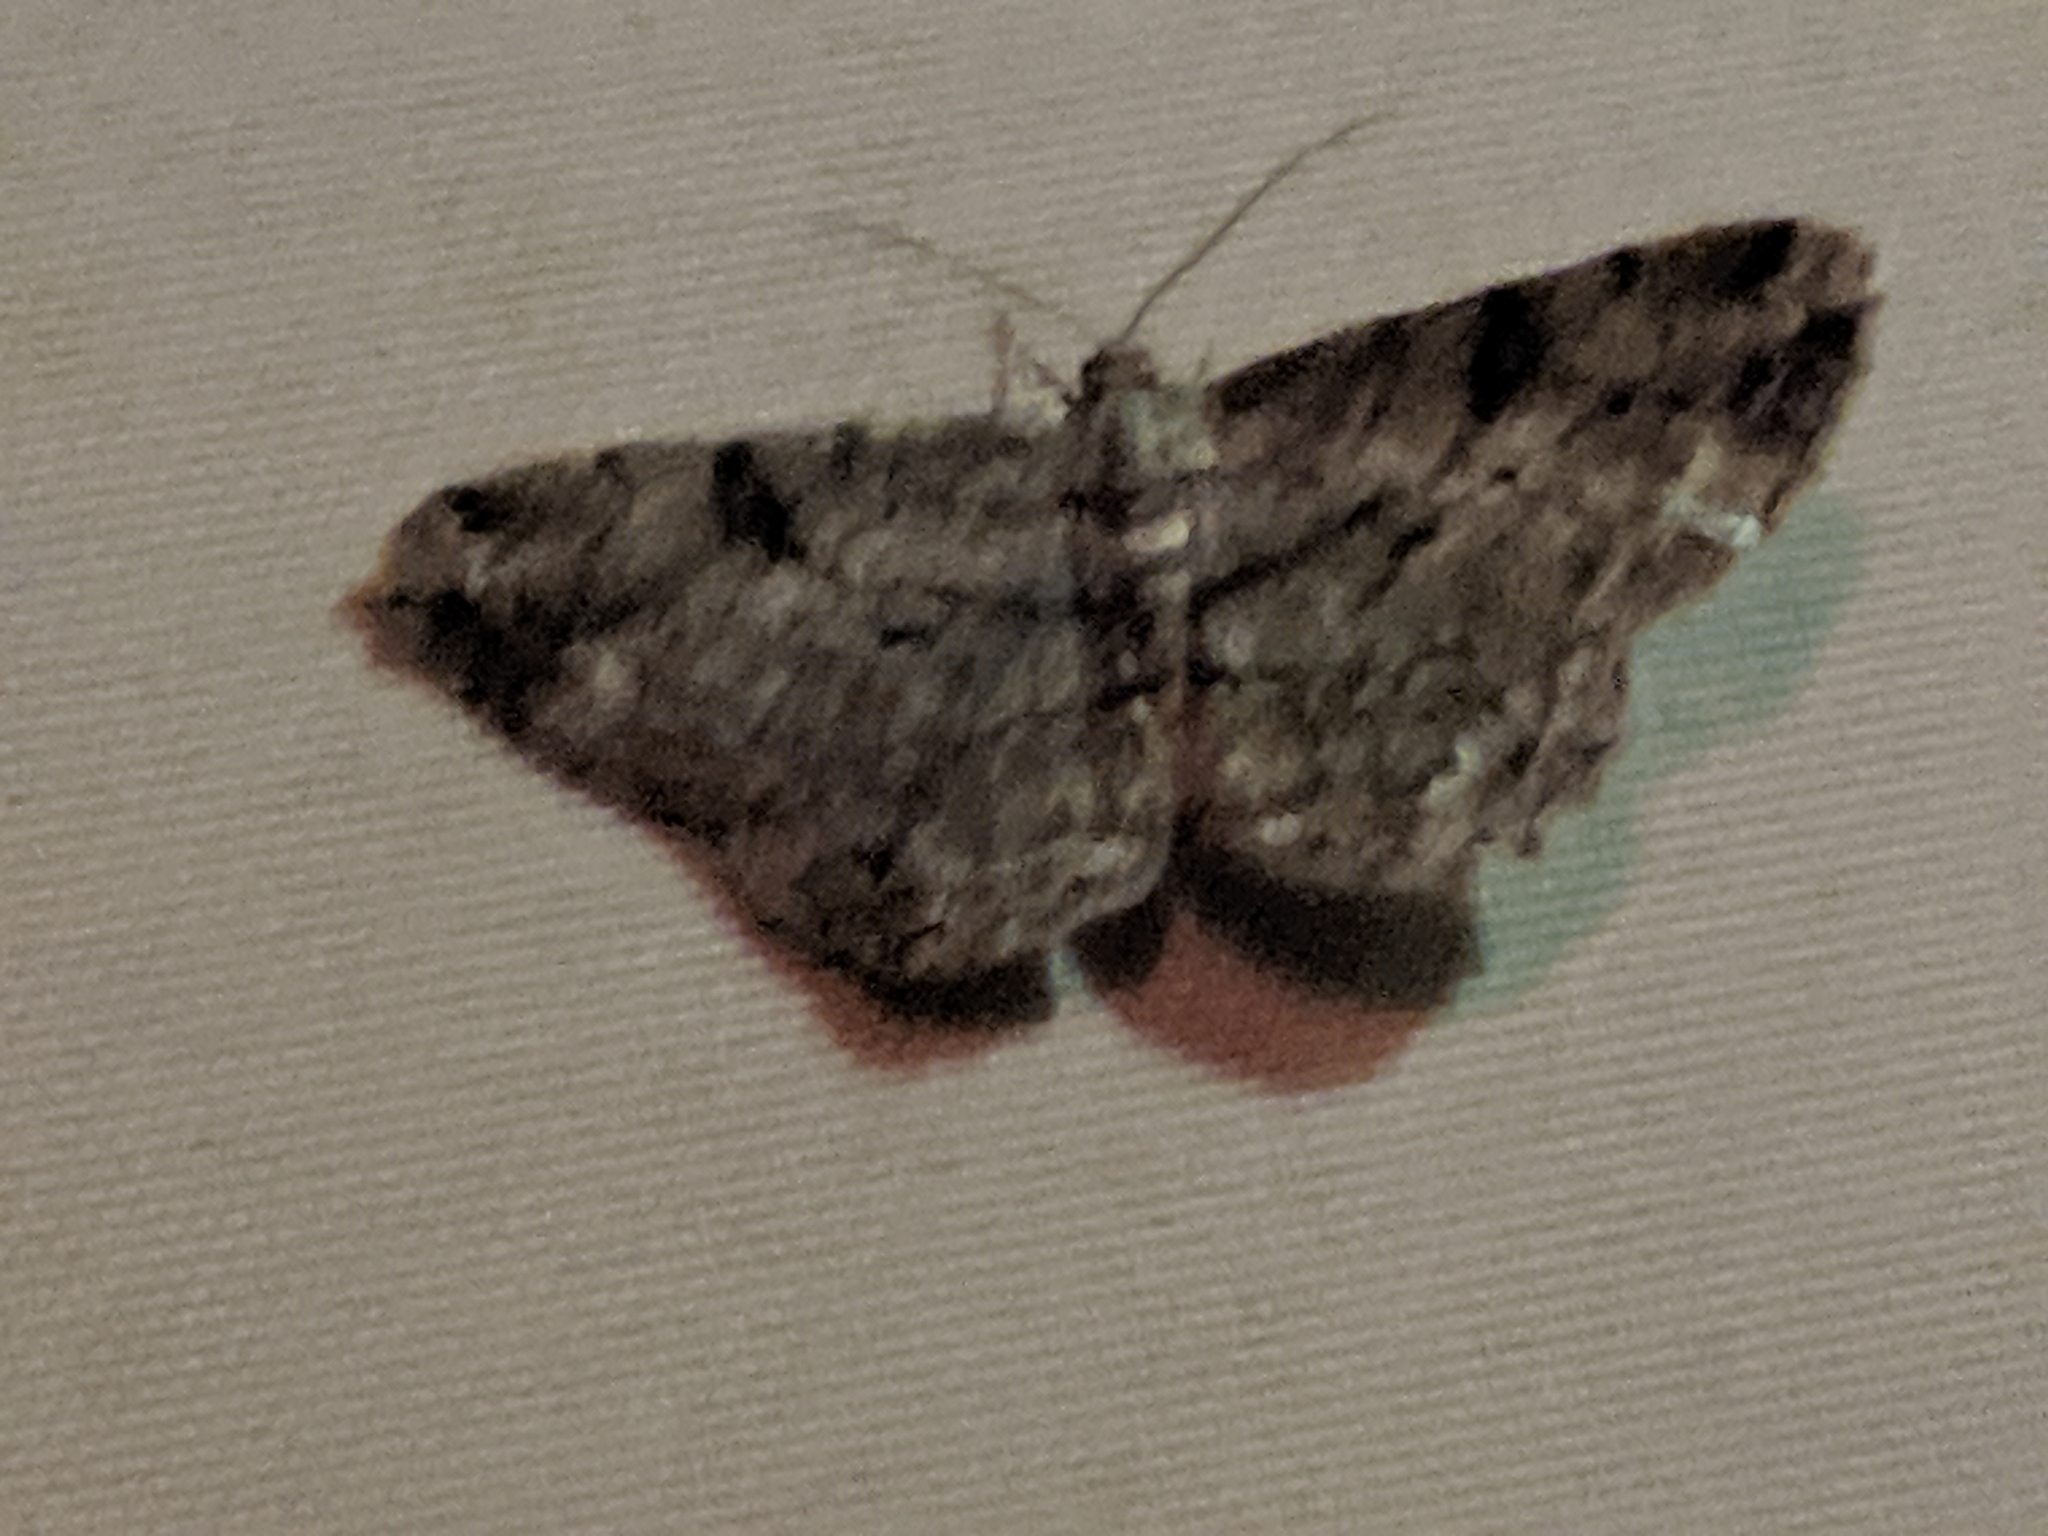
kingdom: Animalia
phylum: Arthropoda
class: Insecta
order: Lepidoptera
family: Geometridae
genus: Peribatodes
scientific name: Peribatodes rhomboidaria
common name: Willow beauty
